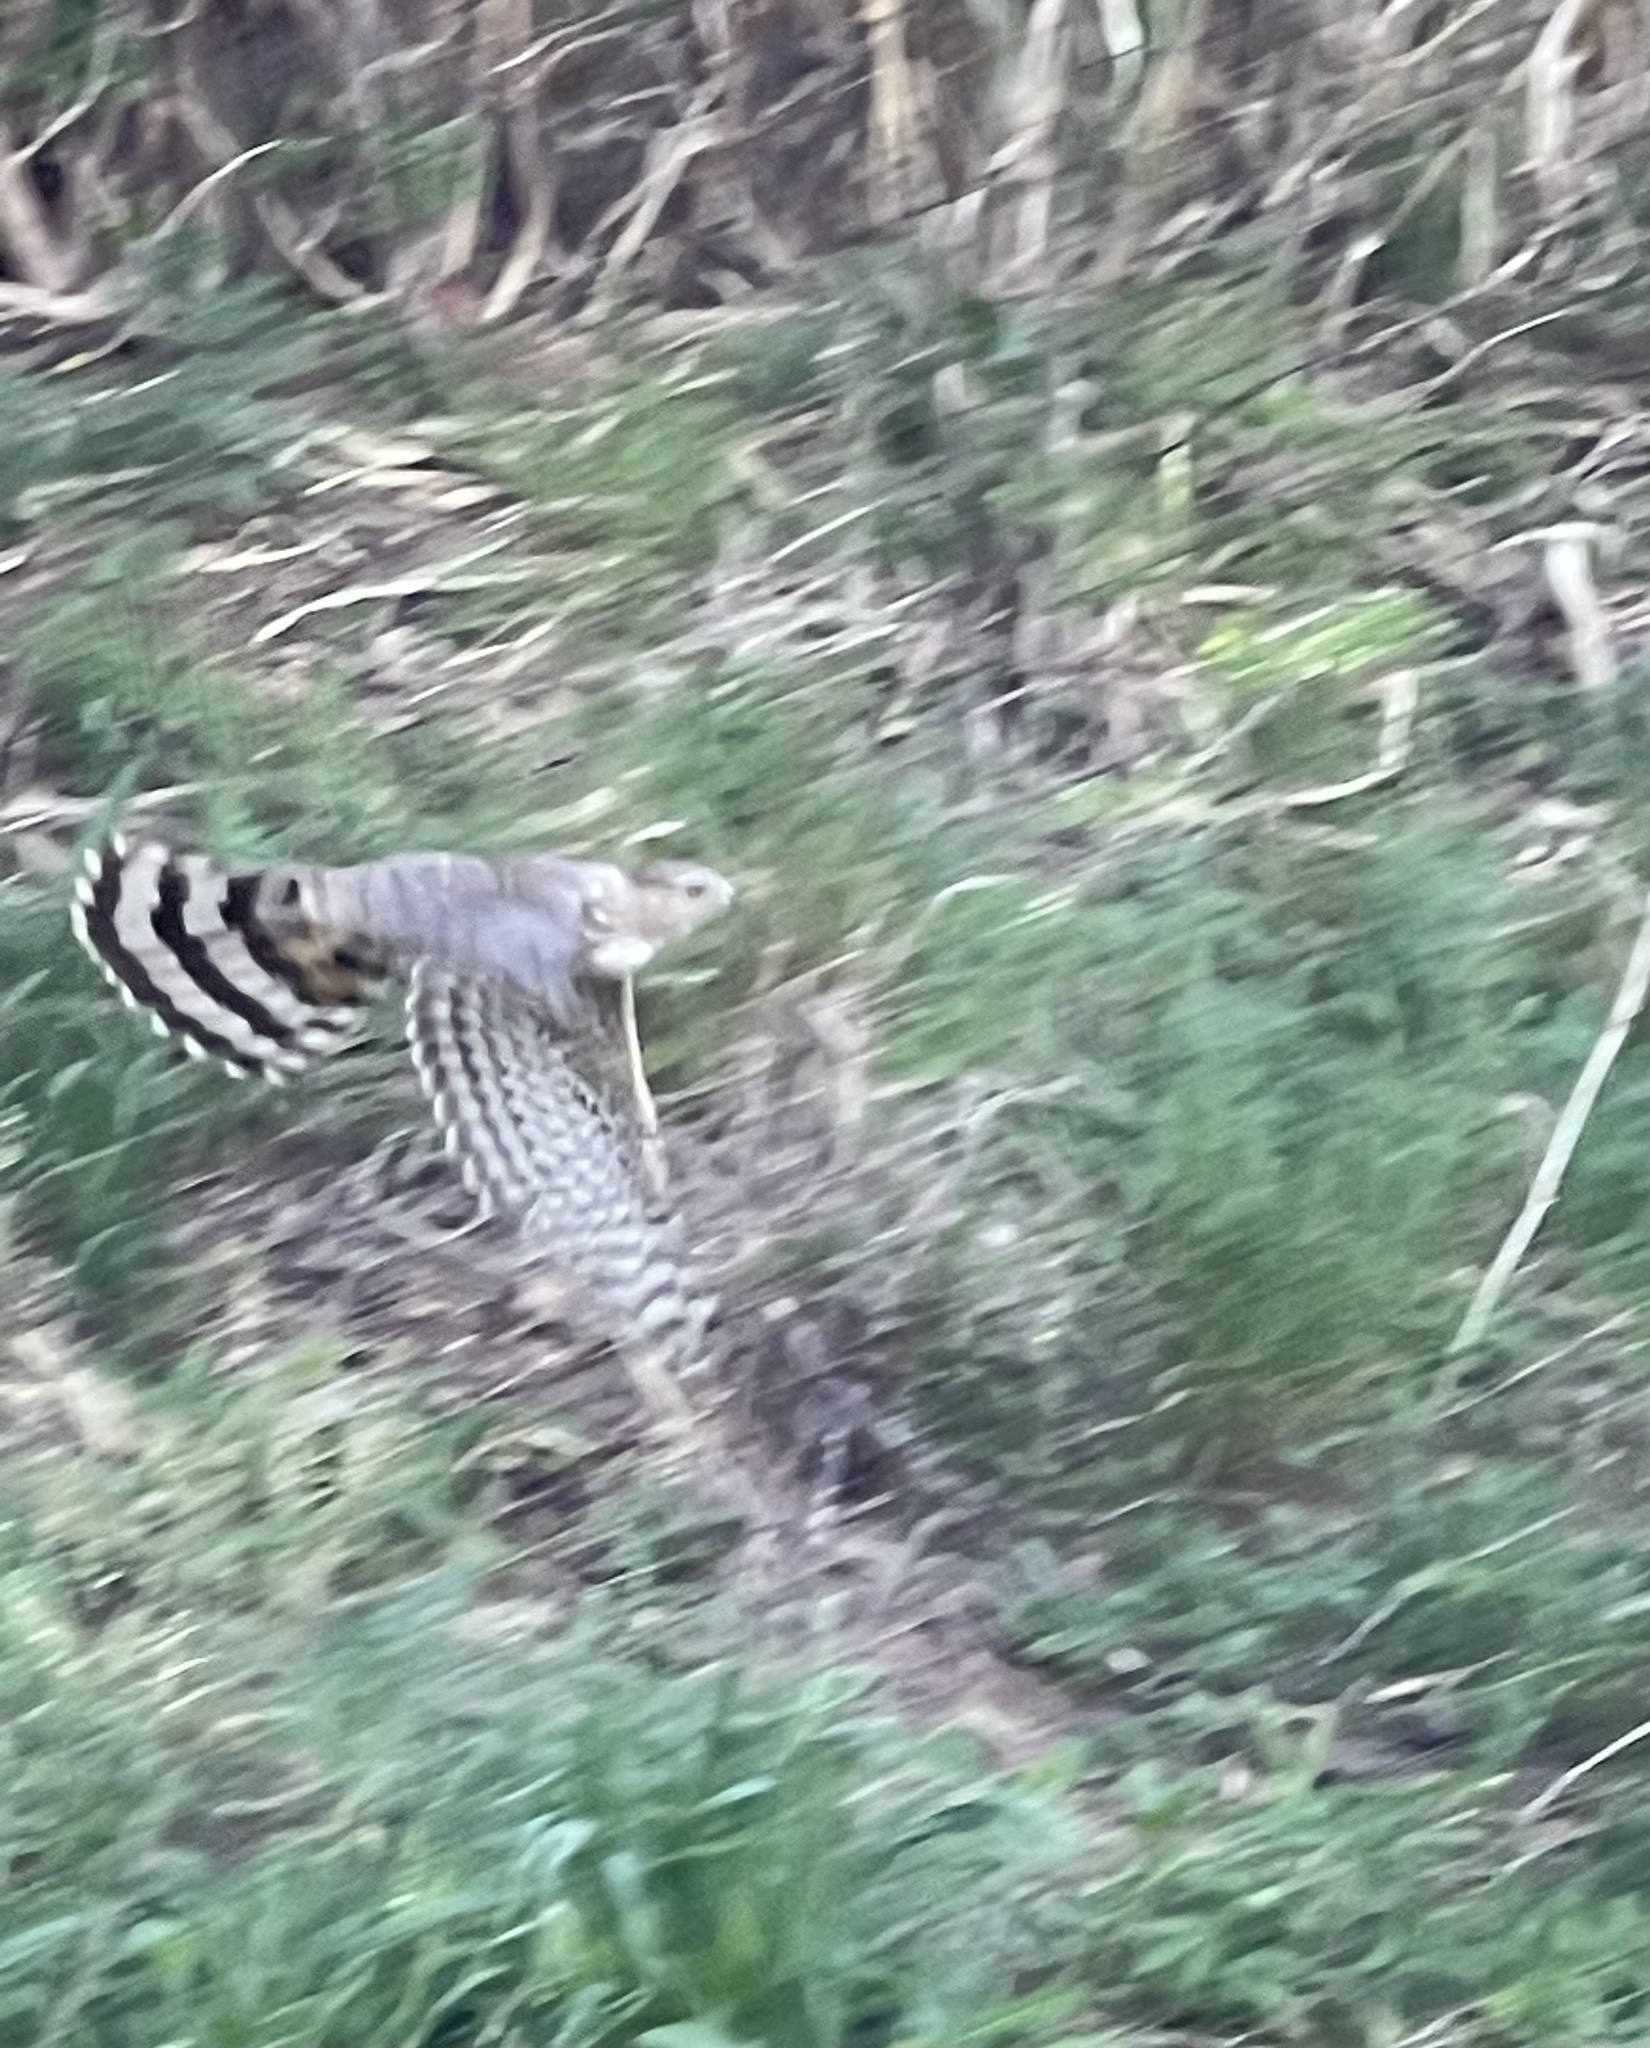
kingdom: Animalia
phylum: Chordata
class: Aves
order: Accipitriformes
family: Accipitridae
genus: Accipiter
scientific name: Accipiter cooperii
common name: Cooper's hawk
